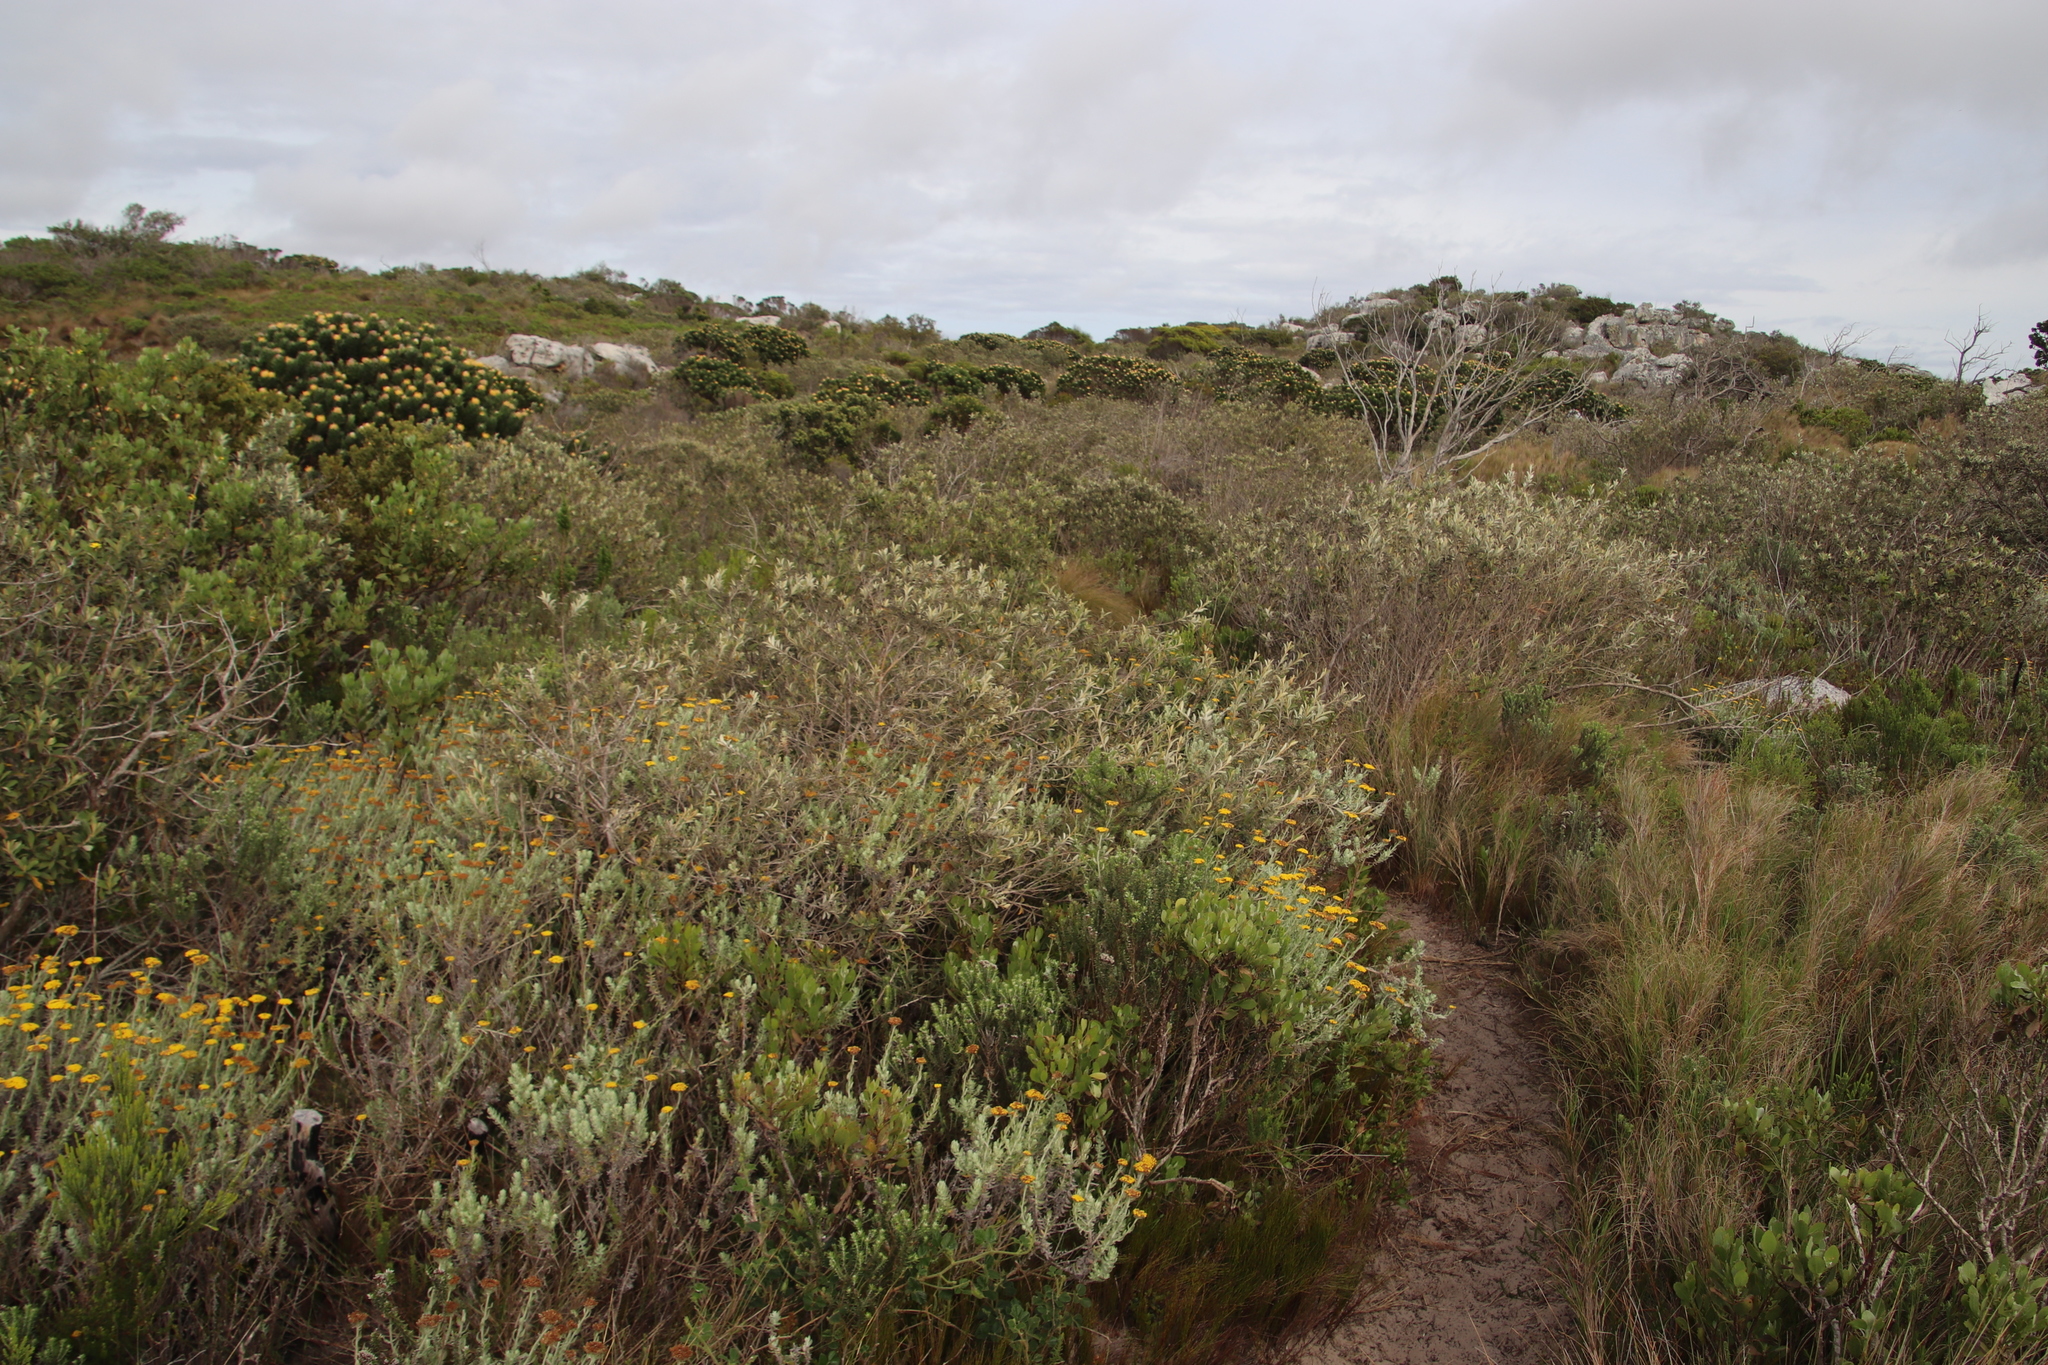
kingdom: Plantae
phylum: Tracheophyta
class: Magnoliopsida
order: Asterales
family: Asteraceae
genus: Tarchonanthus
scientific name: Tarchonanthus littoralis
